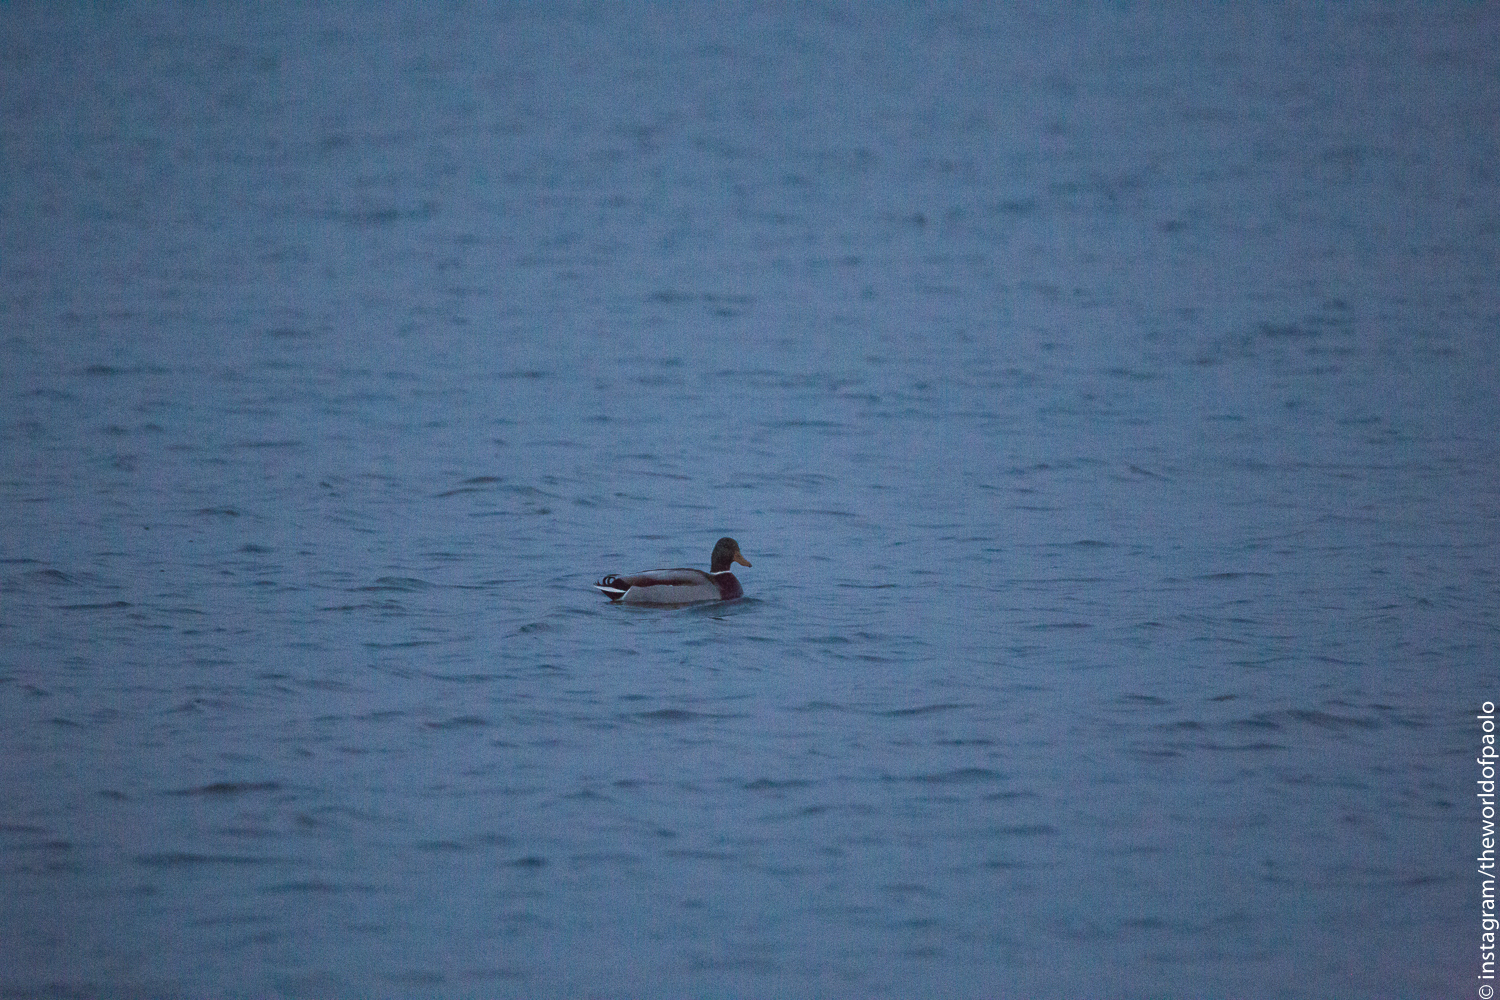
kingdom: Animalia
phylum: Chordata
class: Aves
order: Anseriformes
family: Anatidae
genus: Anas
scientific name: Anas platyrhynchos
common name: Mallard
